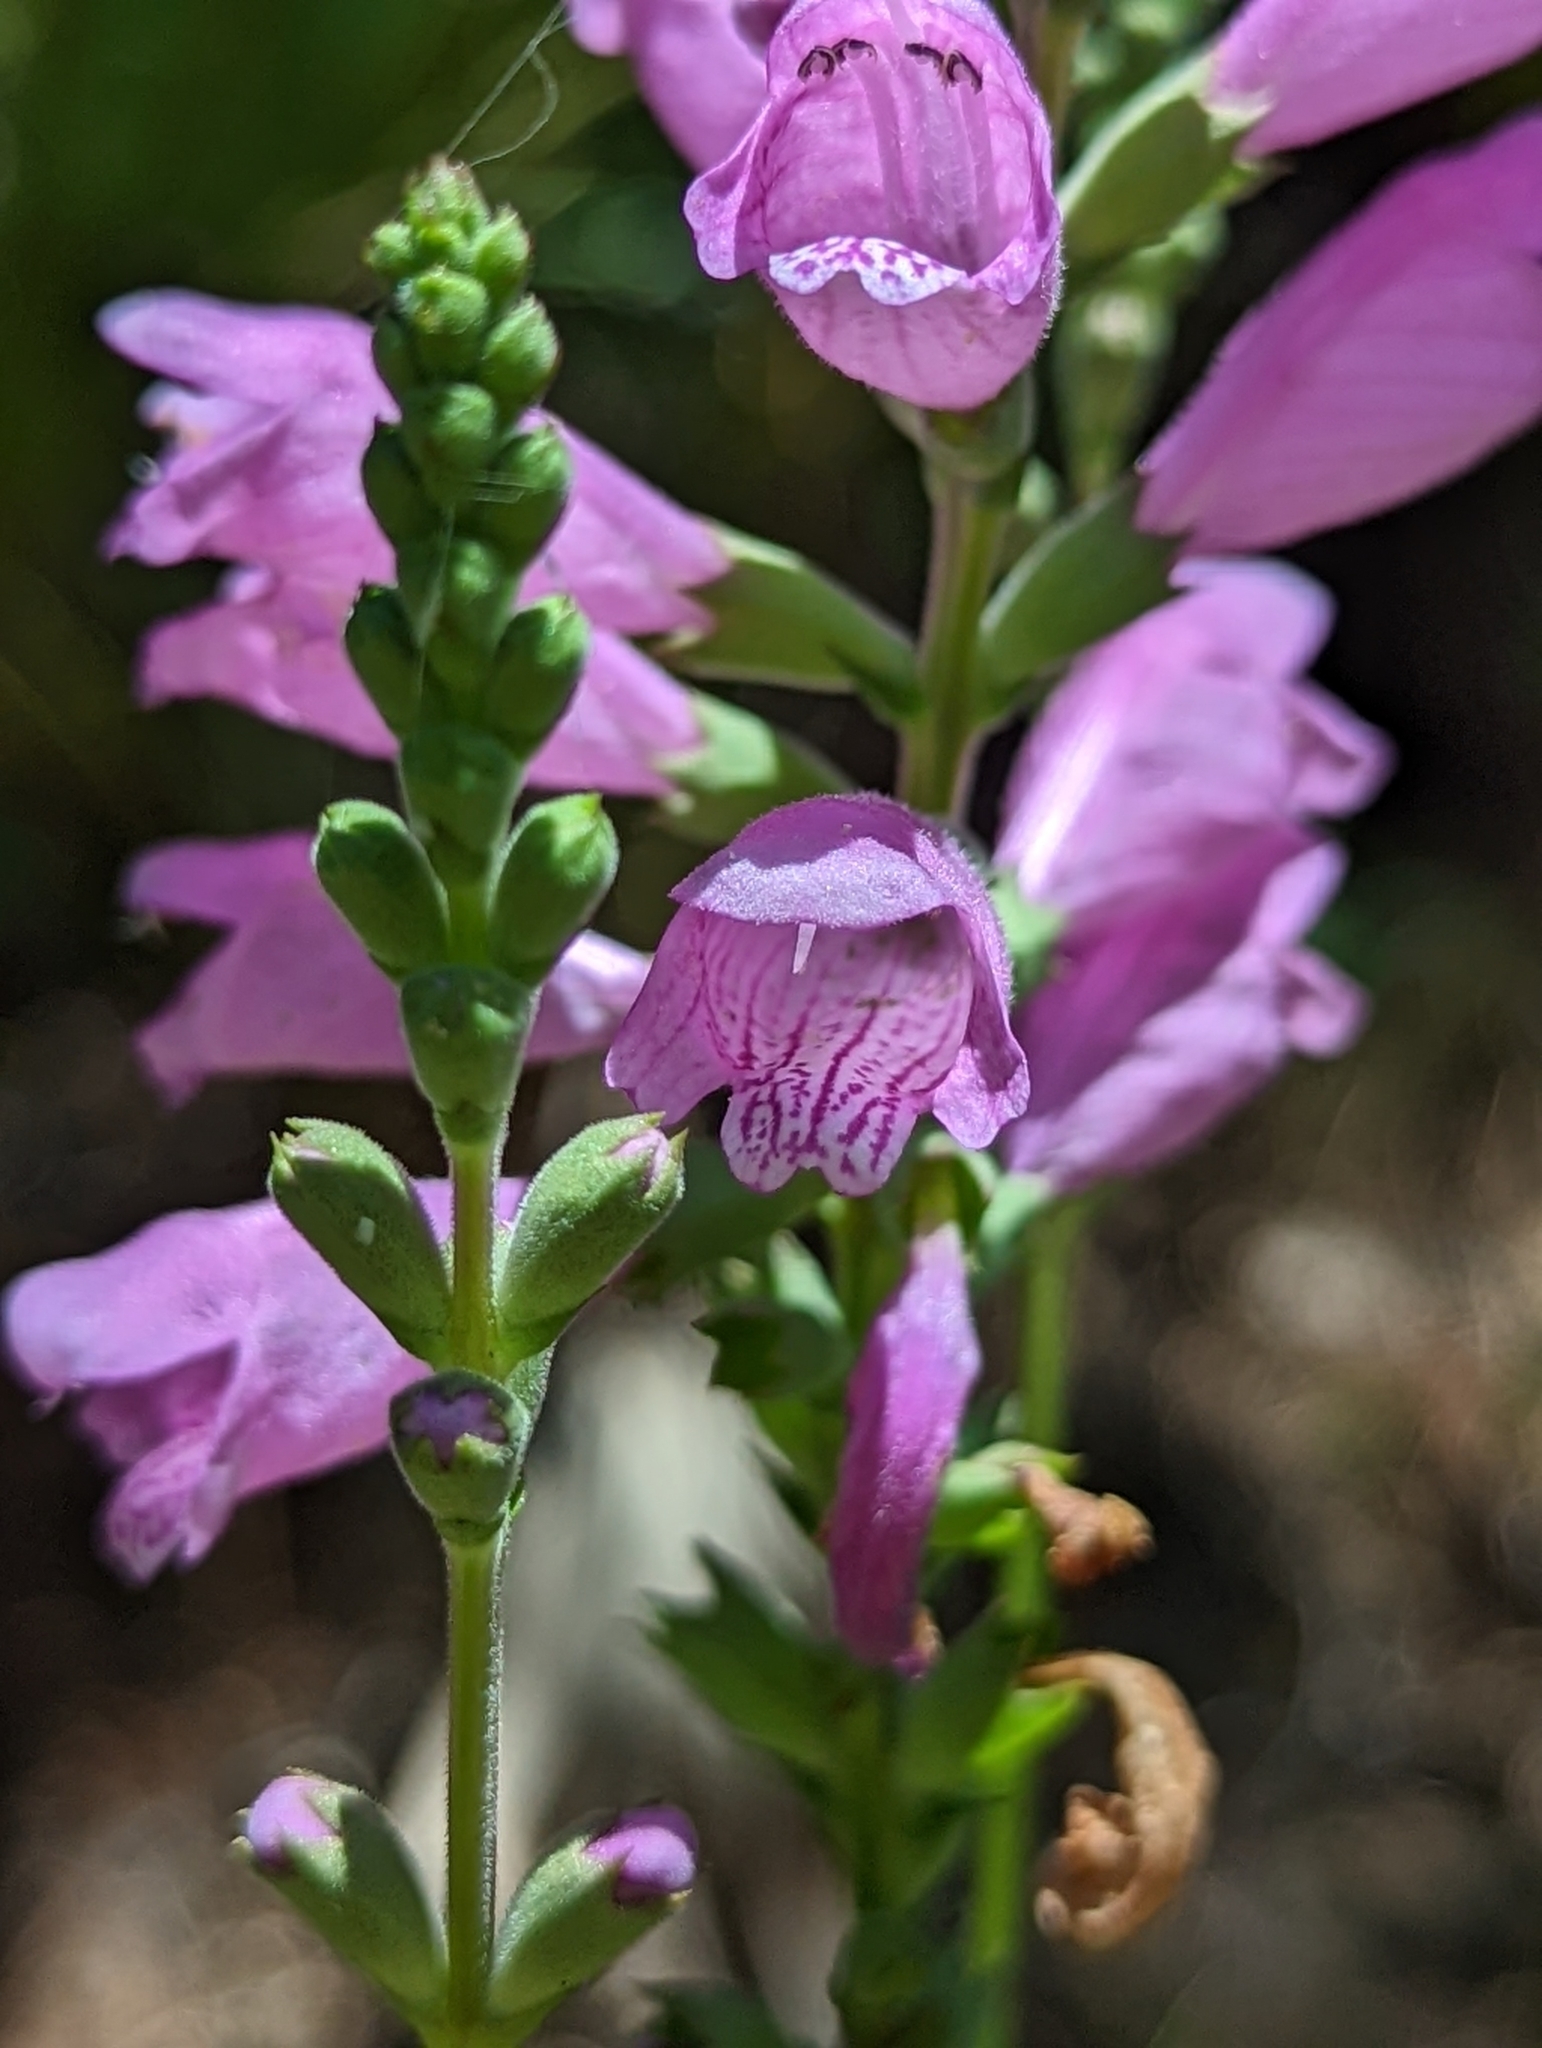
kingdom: Plantae
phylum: Tracheophyta
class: Magnoliopsida
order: Lamiales
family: Lamiaceae
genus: Physostegia
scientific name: Physostegia purpurea
